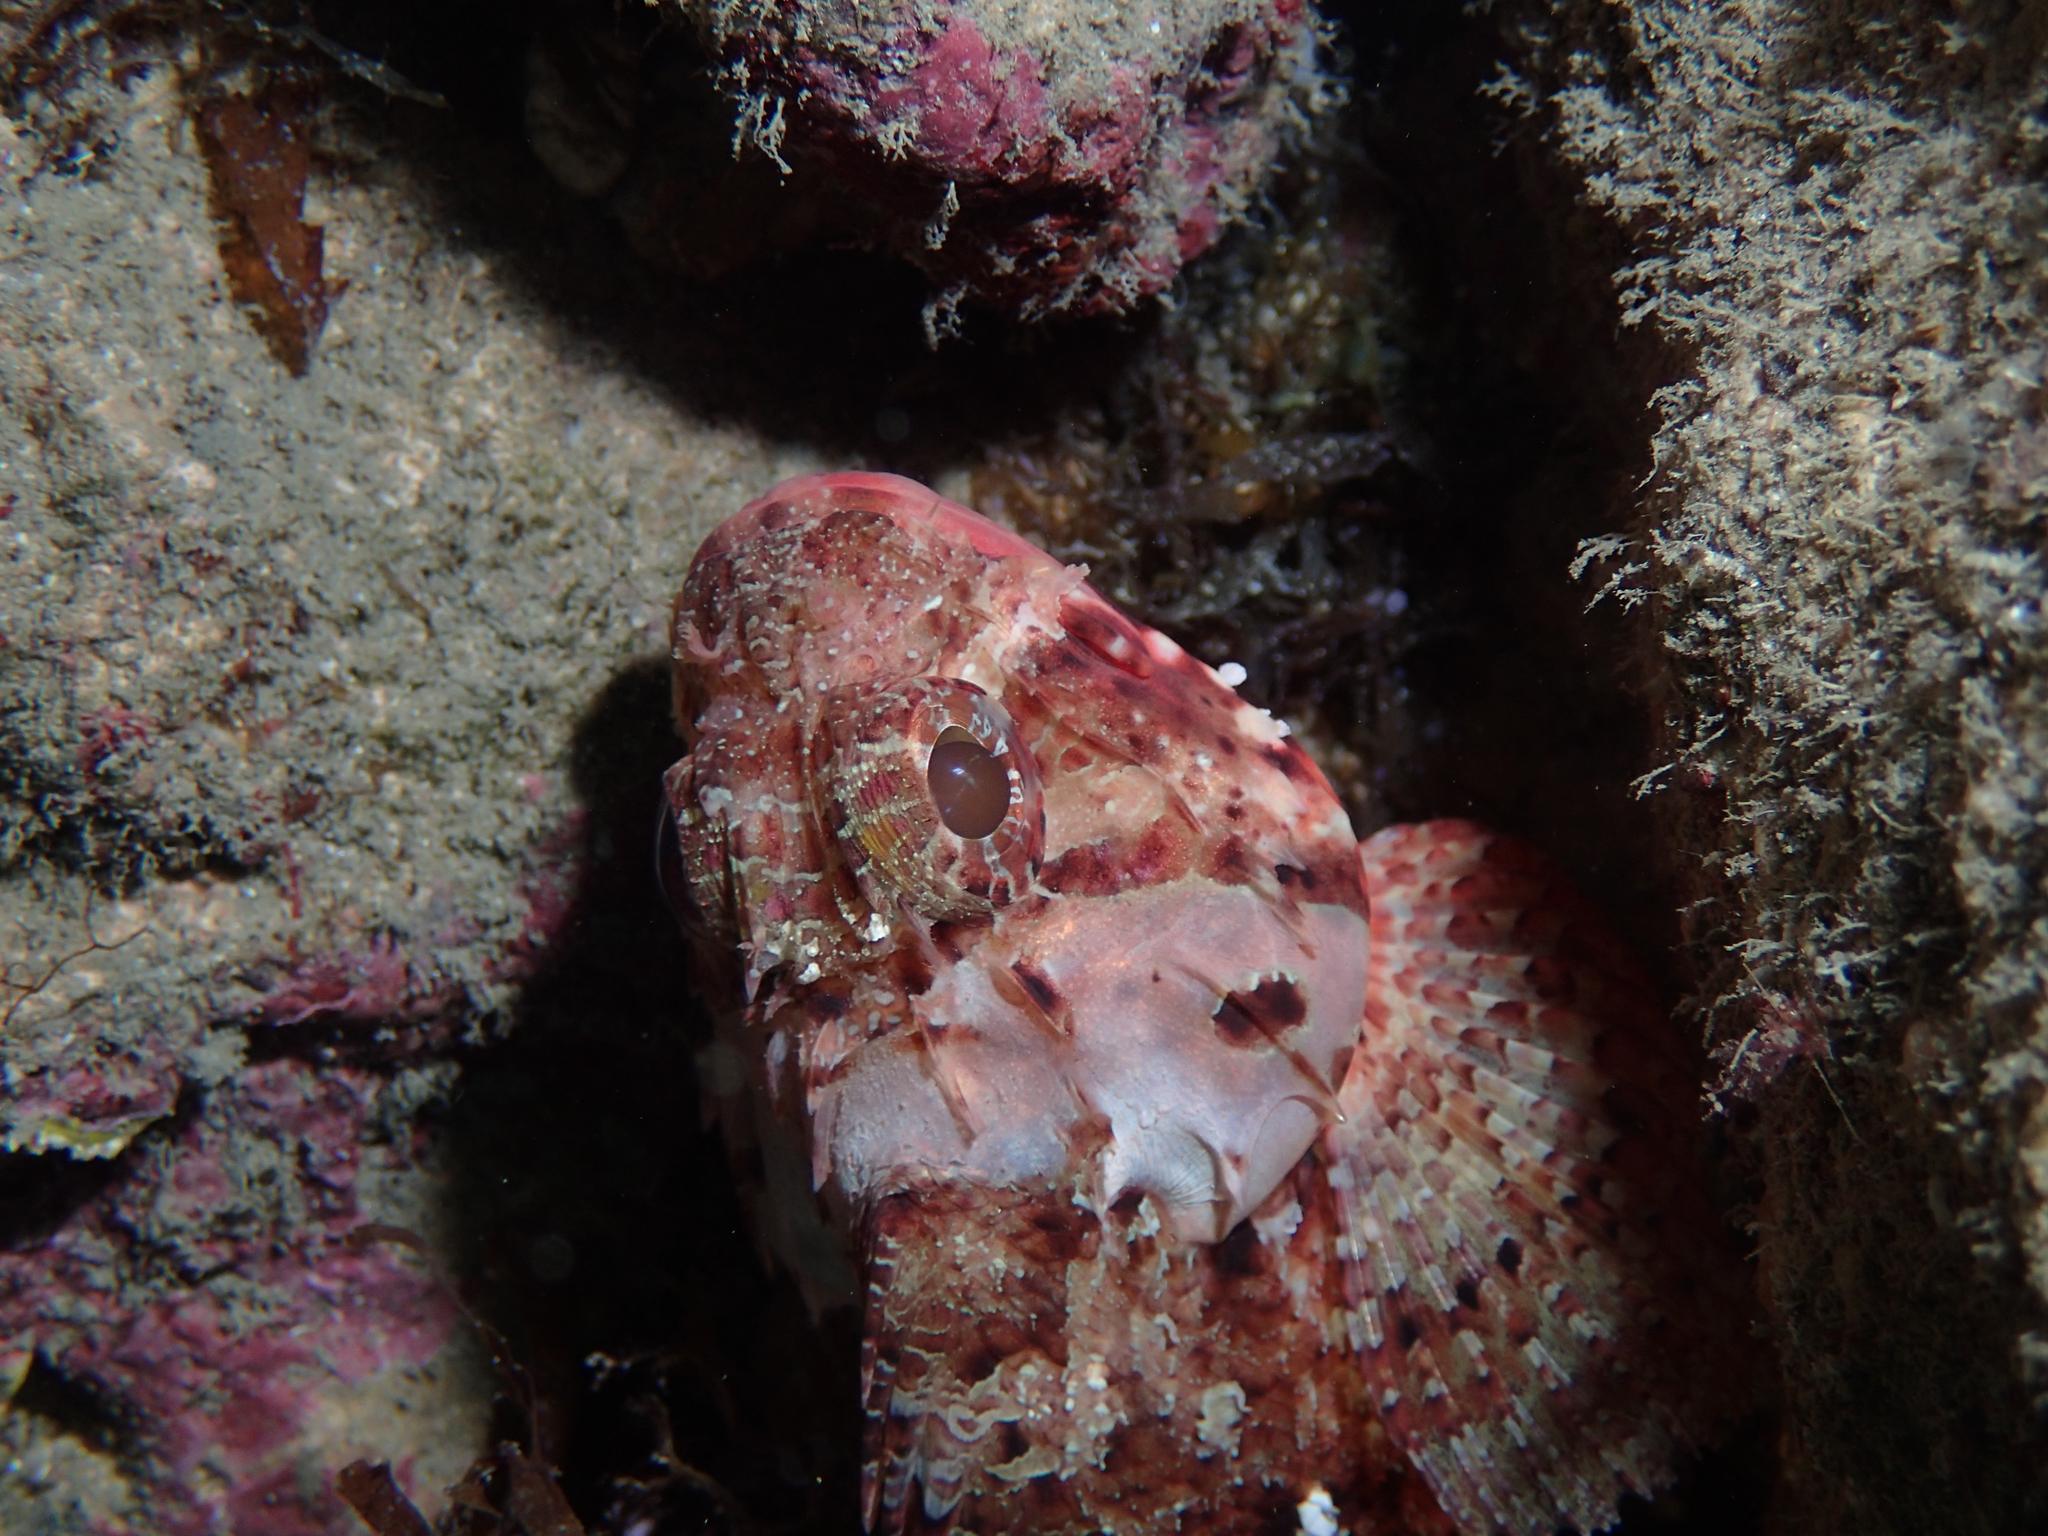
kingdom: Animalia
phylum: Chordata
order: Scorpaeniformes
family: Scorpaenidae
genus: Scorpaena
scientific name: Scorpaena notata
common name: Small red scorpionfish
